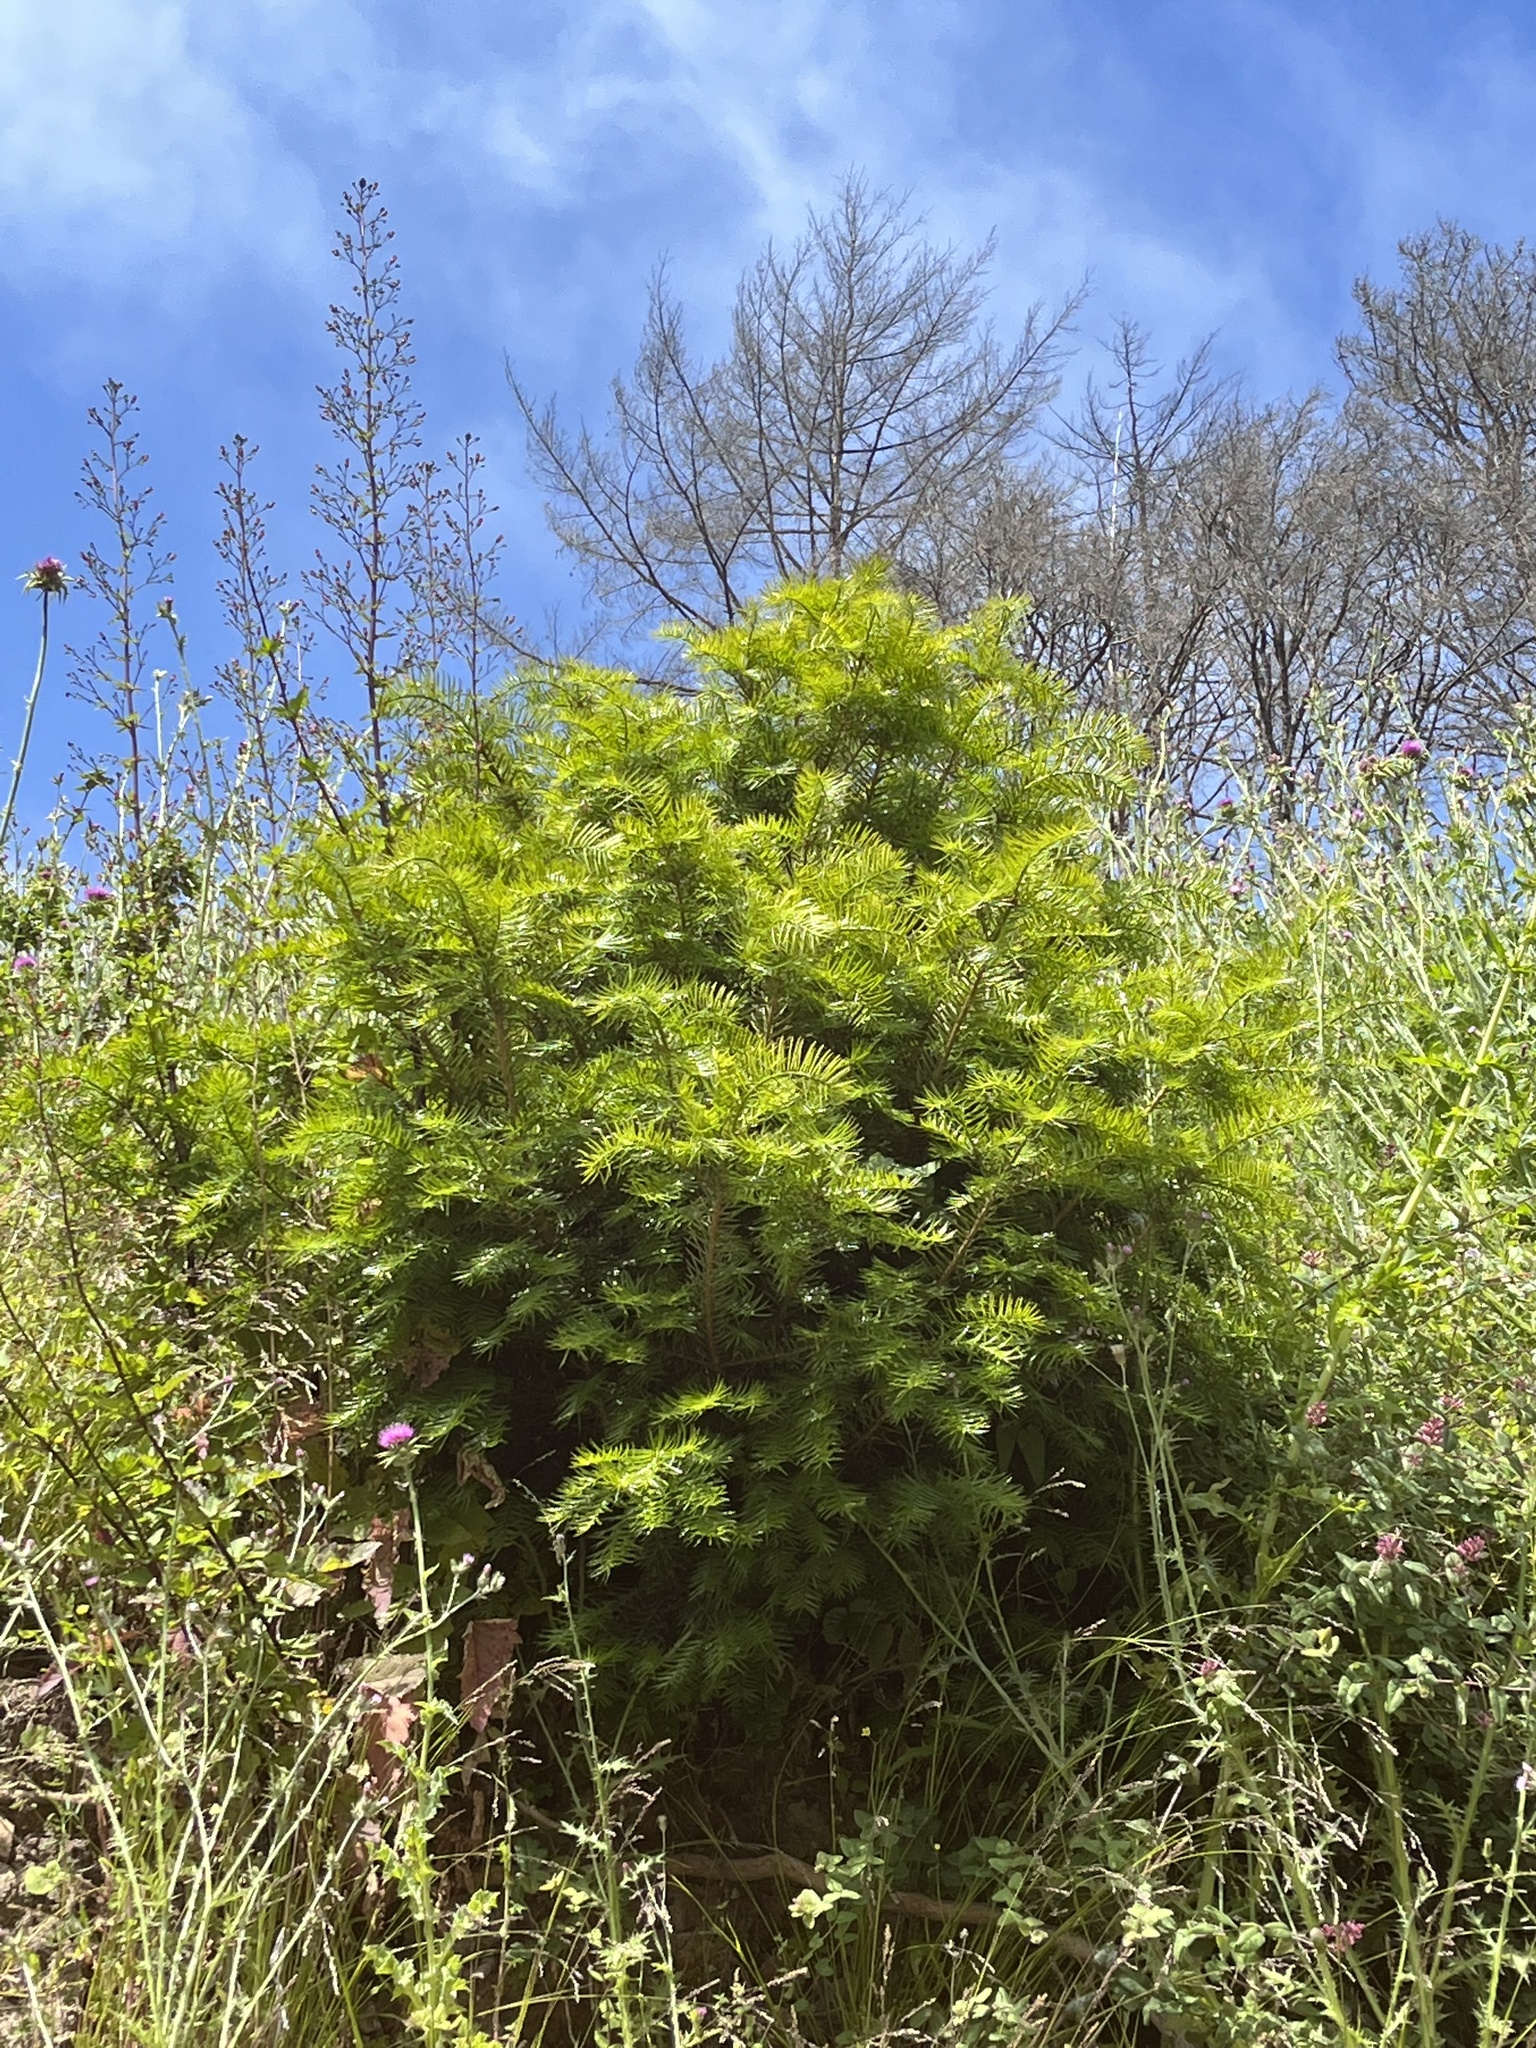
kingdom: Plantae
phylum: Tracheophyta
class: Pinopsida
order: Pinales
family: Taxaceae
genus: Torreya
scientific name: Torreya californica
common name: California torreya
